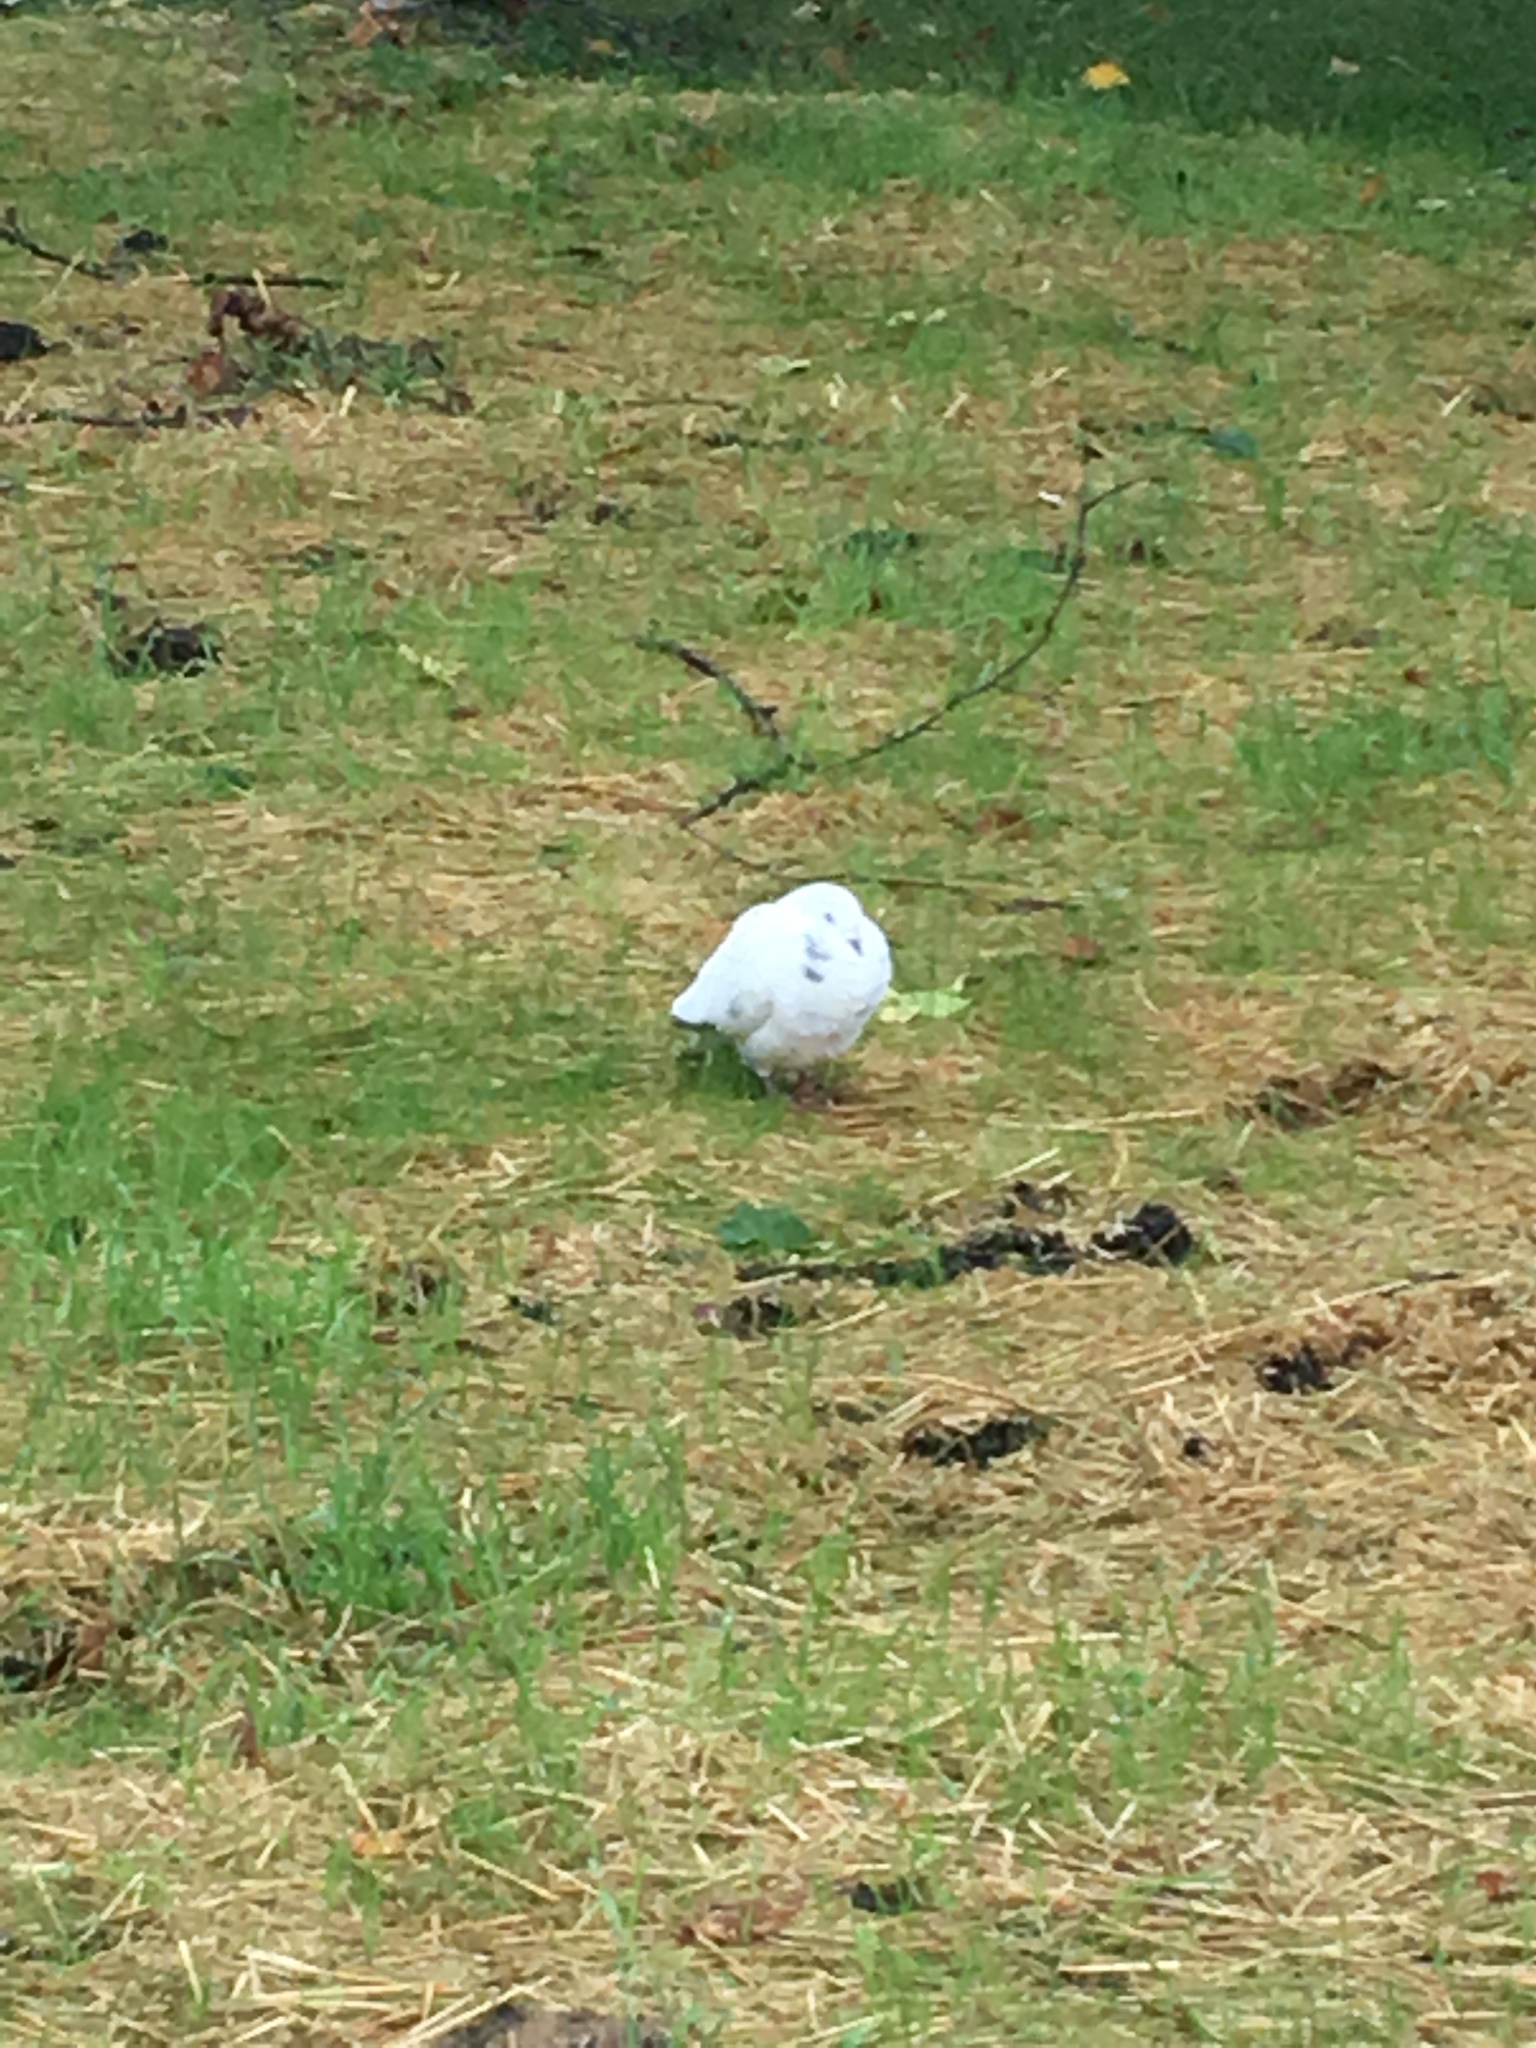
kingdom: Animalia
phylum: Chordata
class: Aves
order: Columbiformes
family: Columbidae
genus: Columba
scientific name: Columba livia
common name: Rock pigeon
